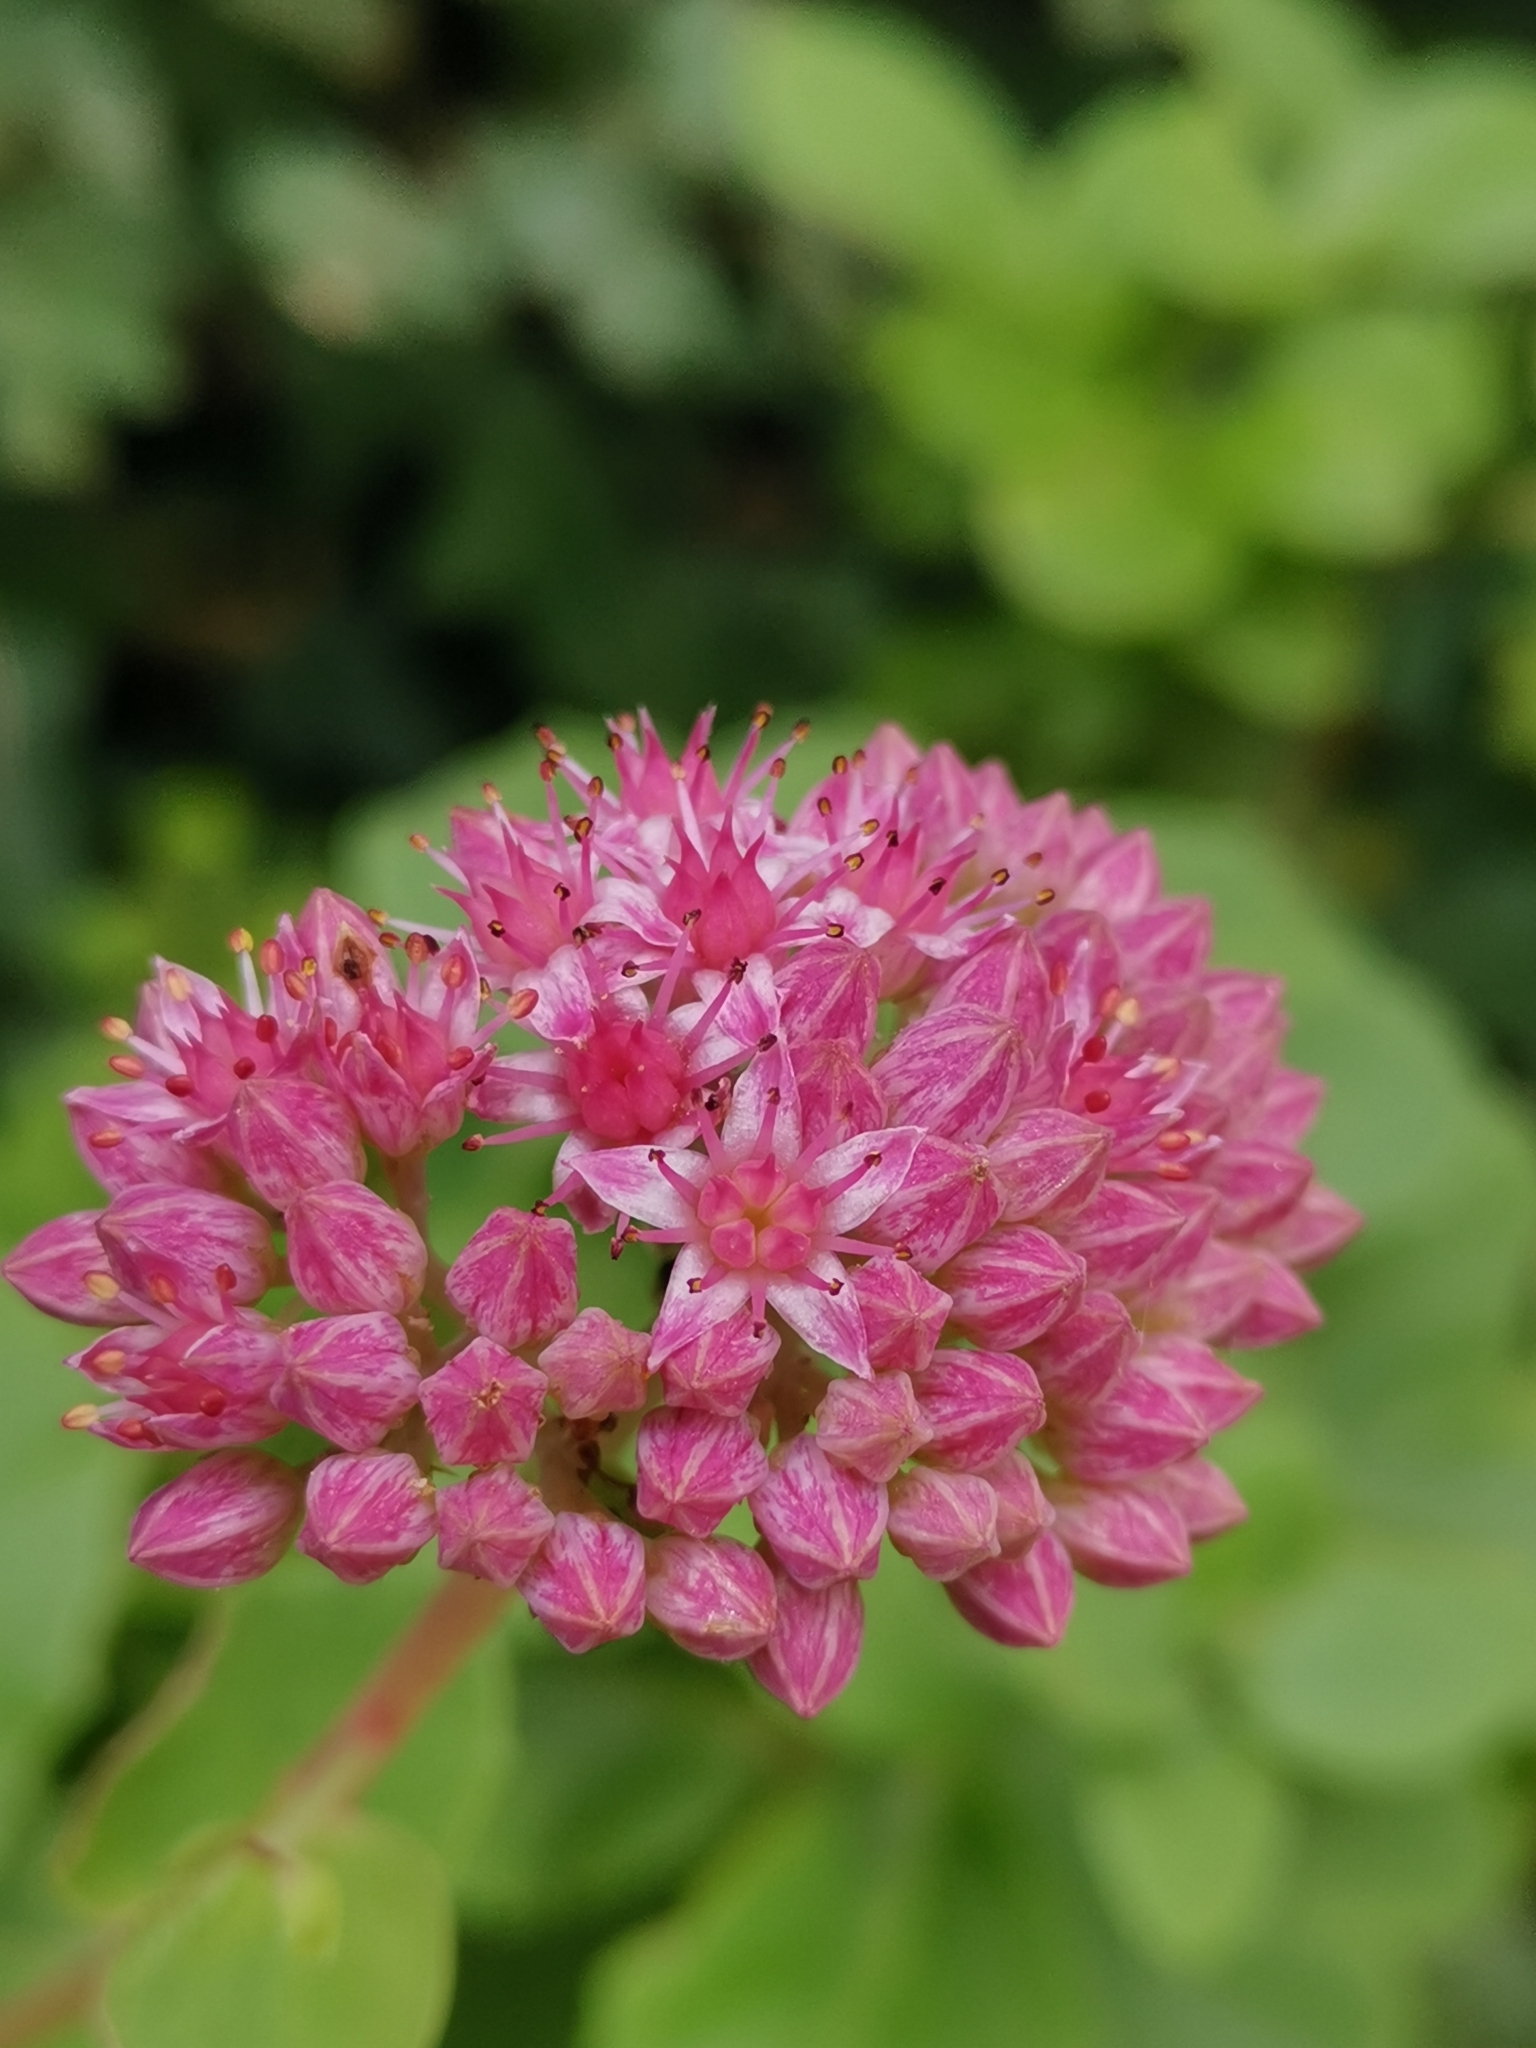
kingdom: Plantae
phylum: Tracheophyta
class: Magnoliopsida
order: Saxifragales
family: Crassulaceae
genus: Hylotelephium
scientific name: Hylotelephium telephium
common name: Live-forever
